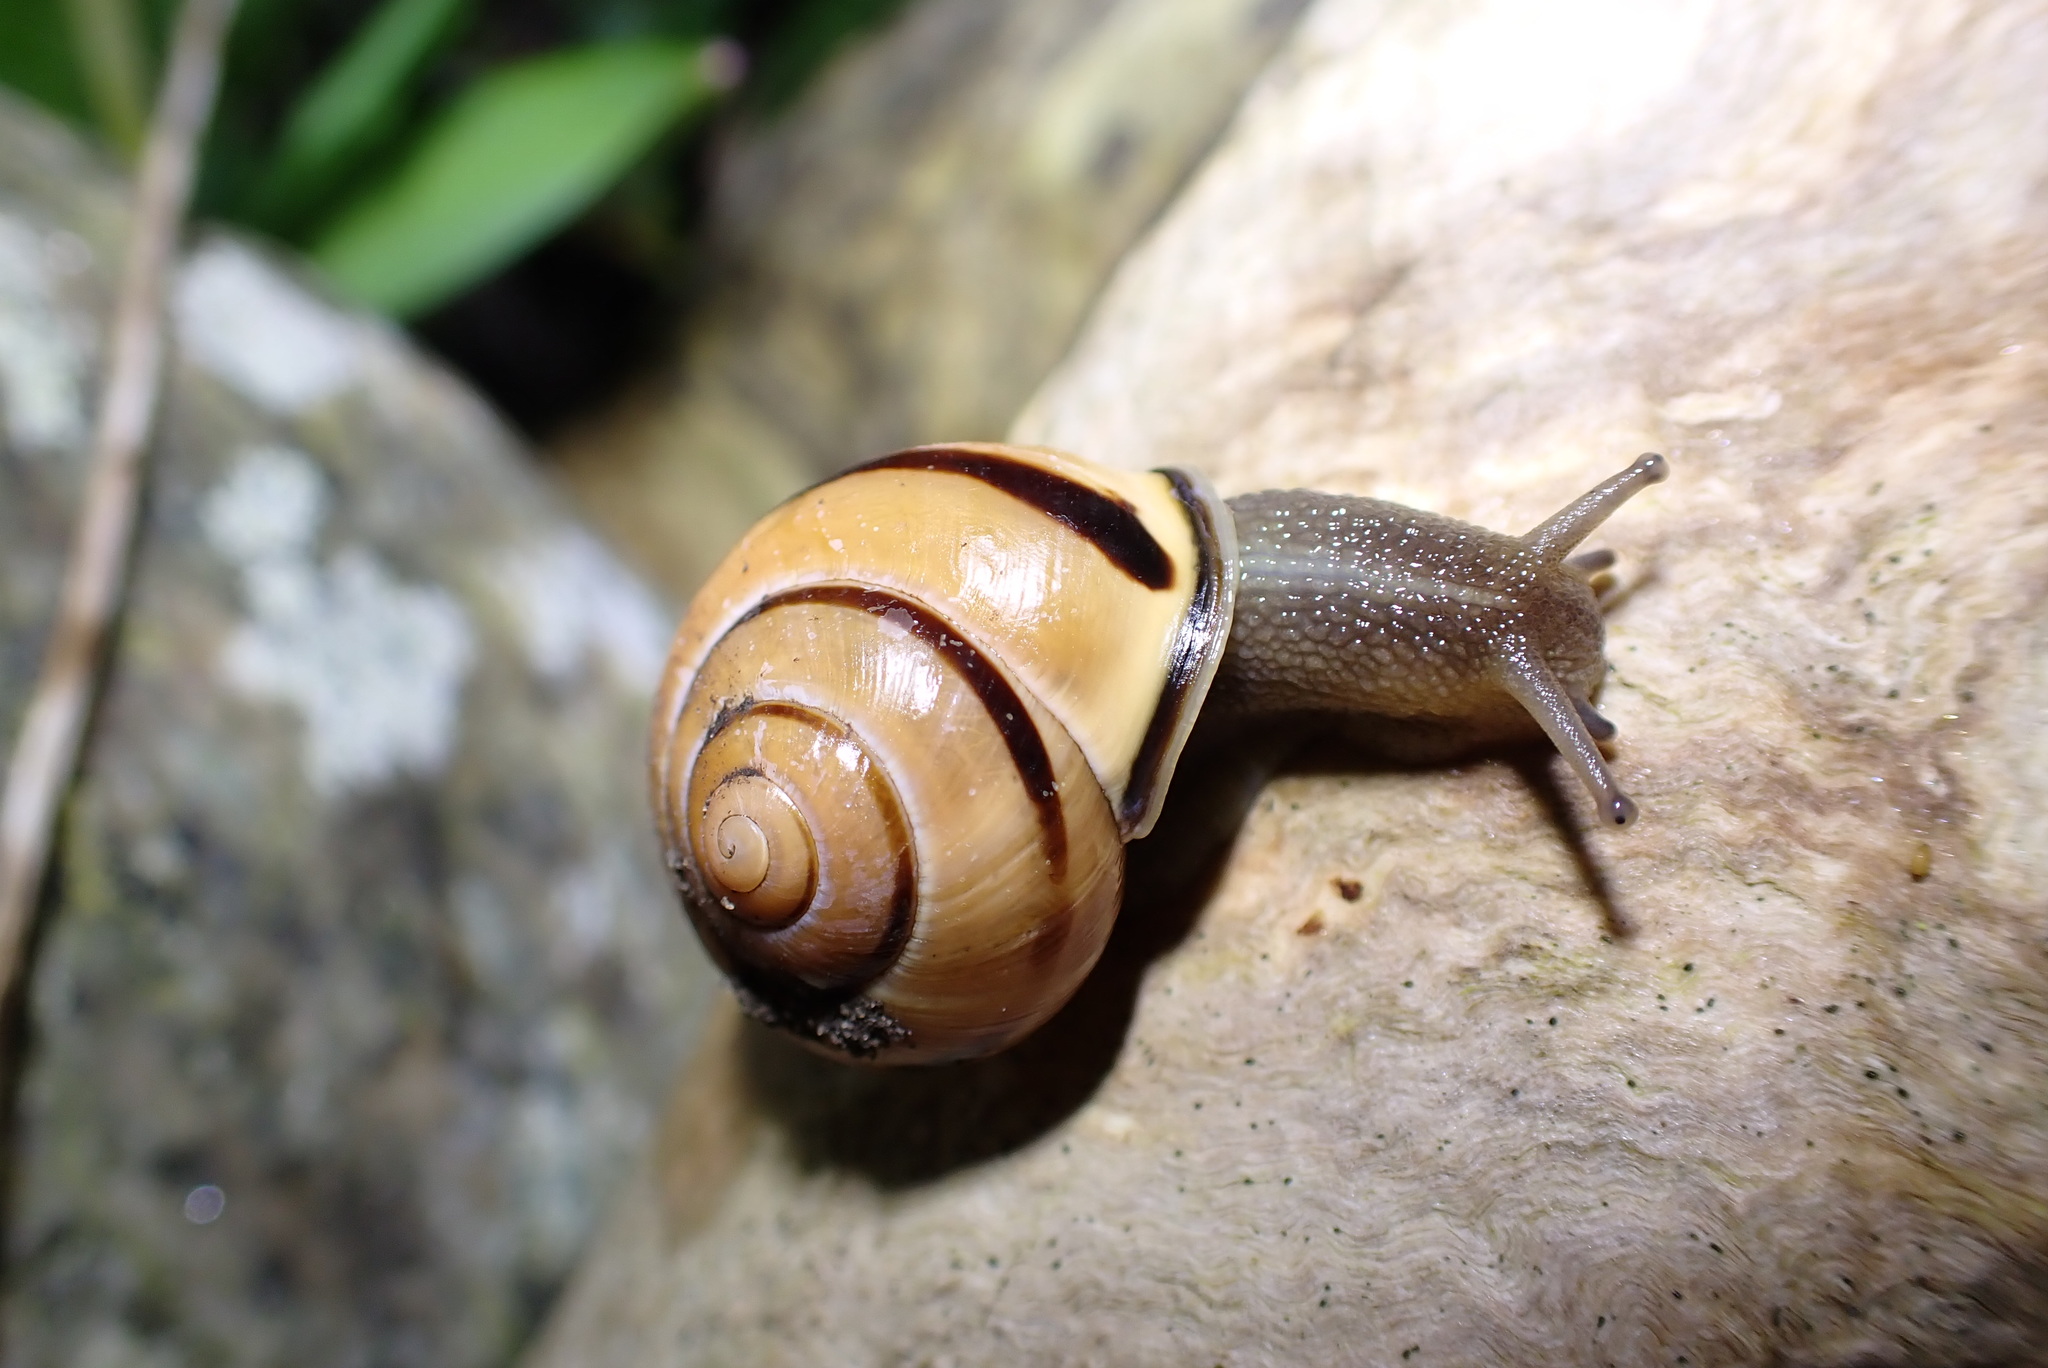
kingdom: Animalia
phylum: Mollusca
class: Gastropoda
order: Stylommatophora
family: Helicidae
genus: Cepaea
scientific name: Cepaea nemoralis
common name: Grovesnail
